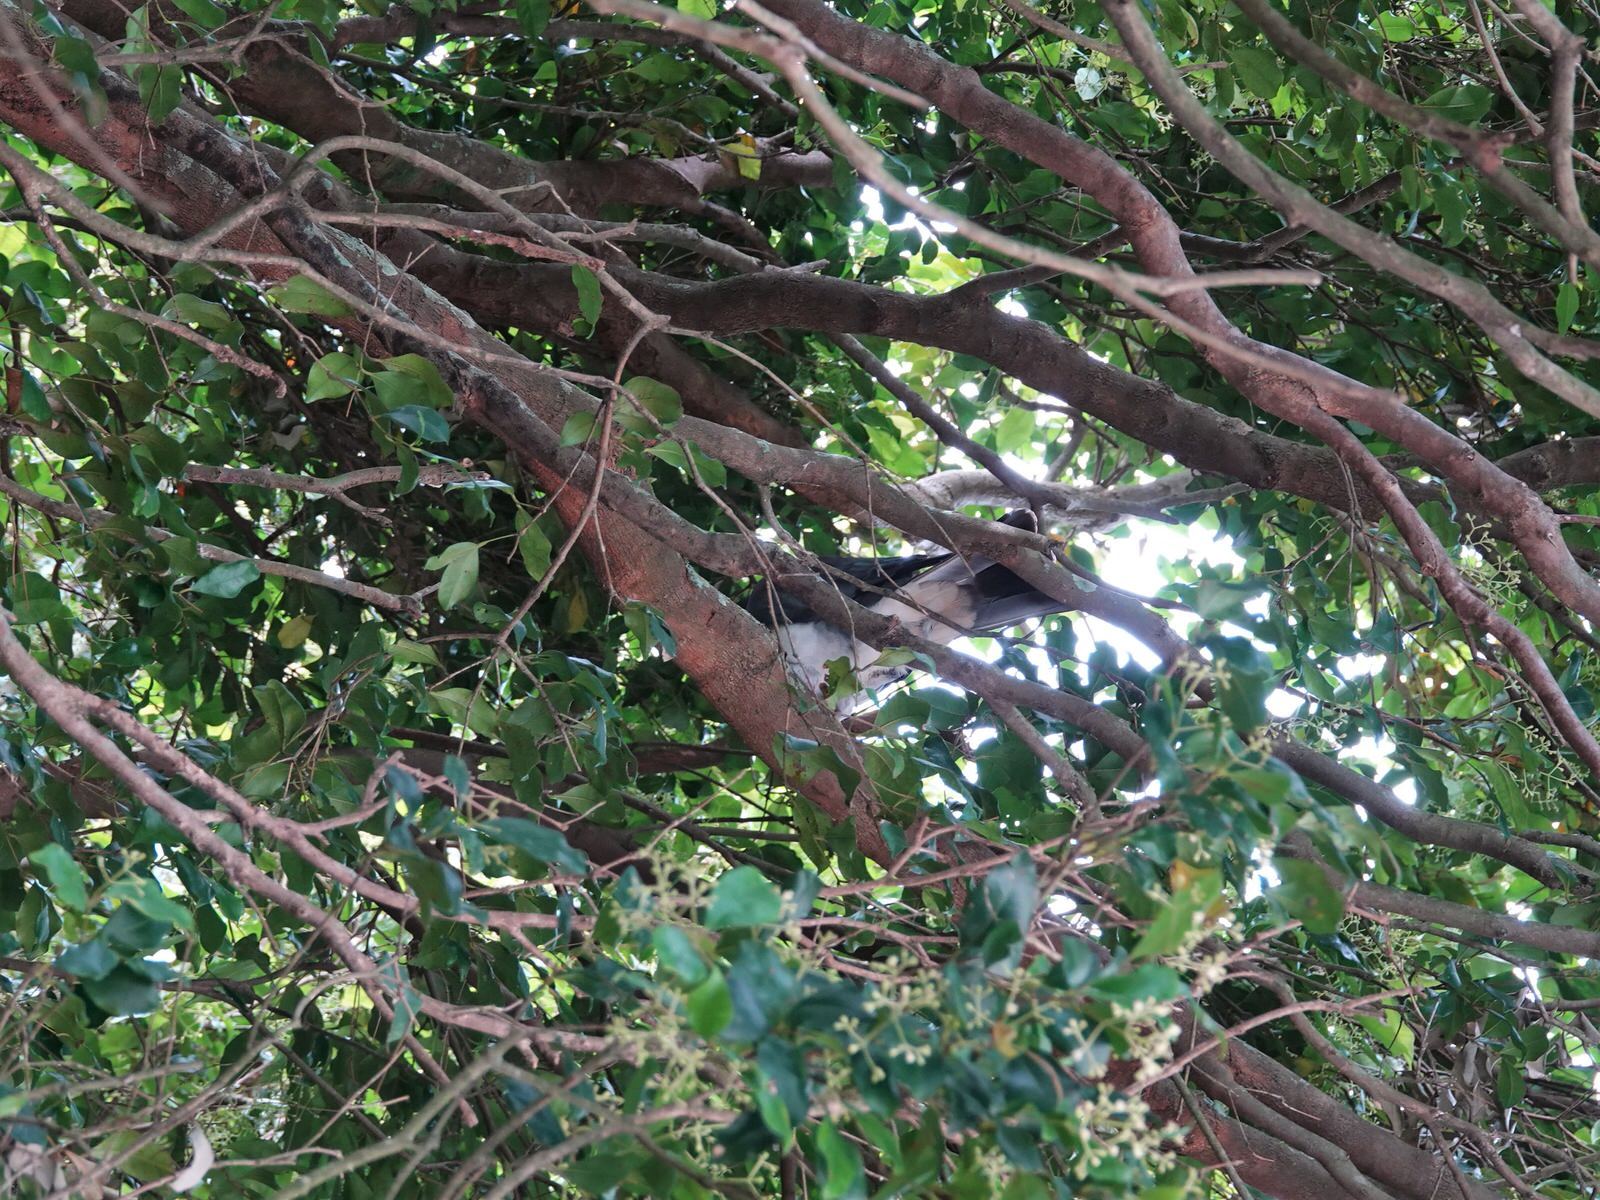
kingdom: Animalia
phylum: Chordata
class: Aves
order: Columbiformes
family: Columbidae
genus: Hemiphaga
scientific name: Hemiphaga novaeseelandiae
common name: New zealand pigeon
